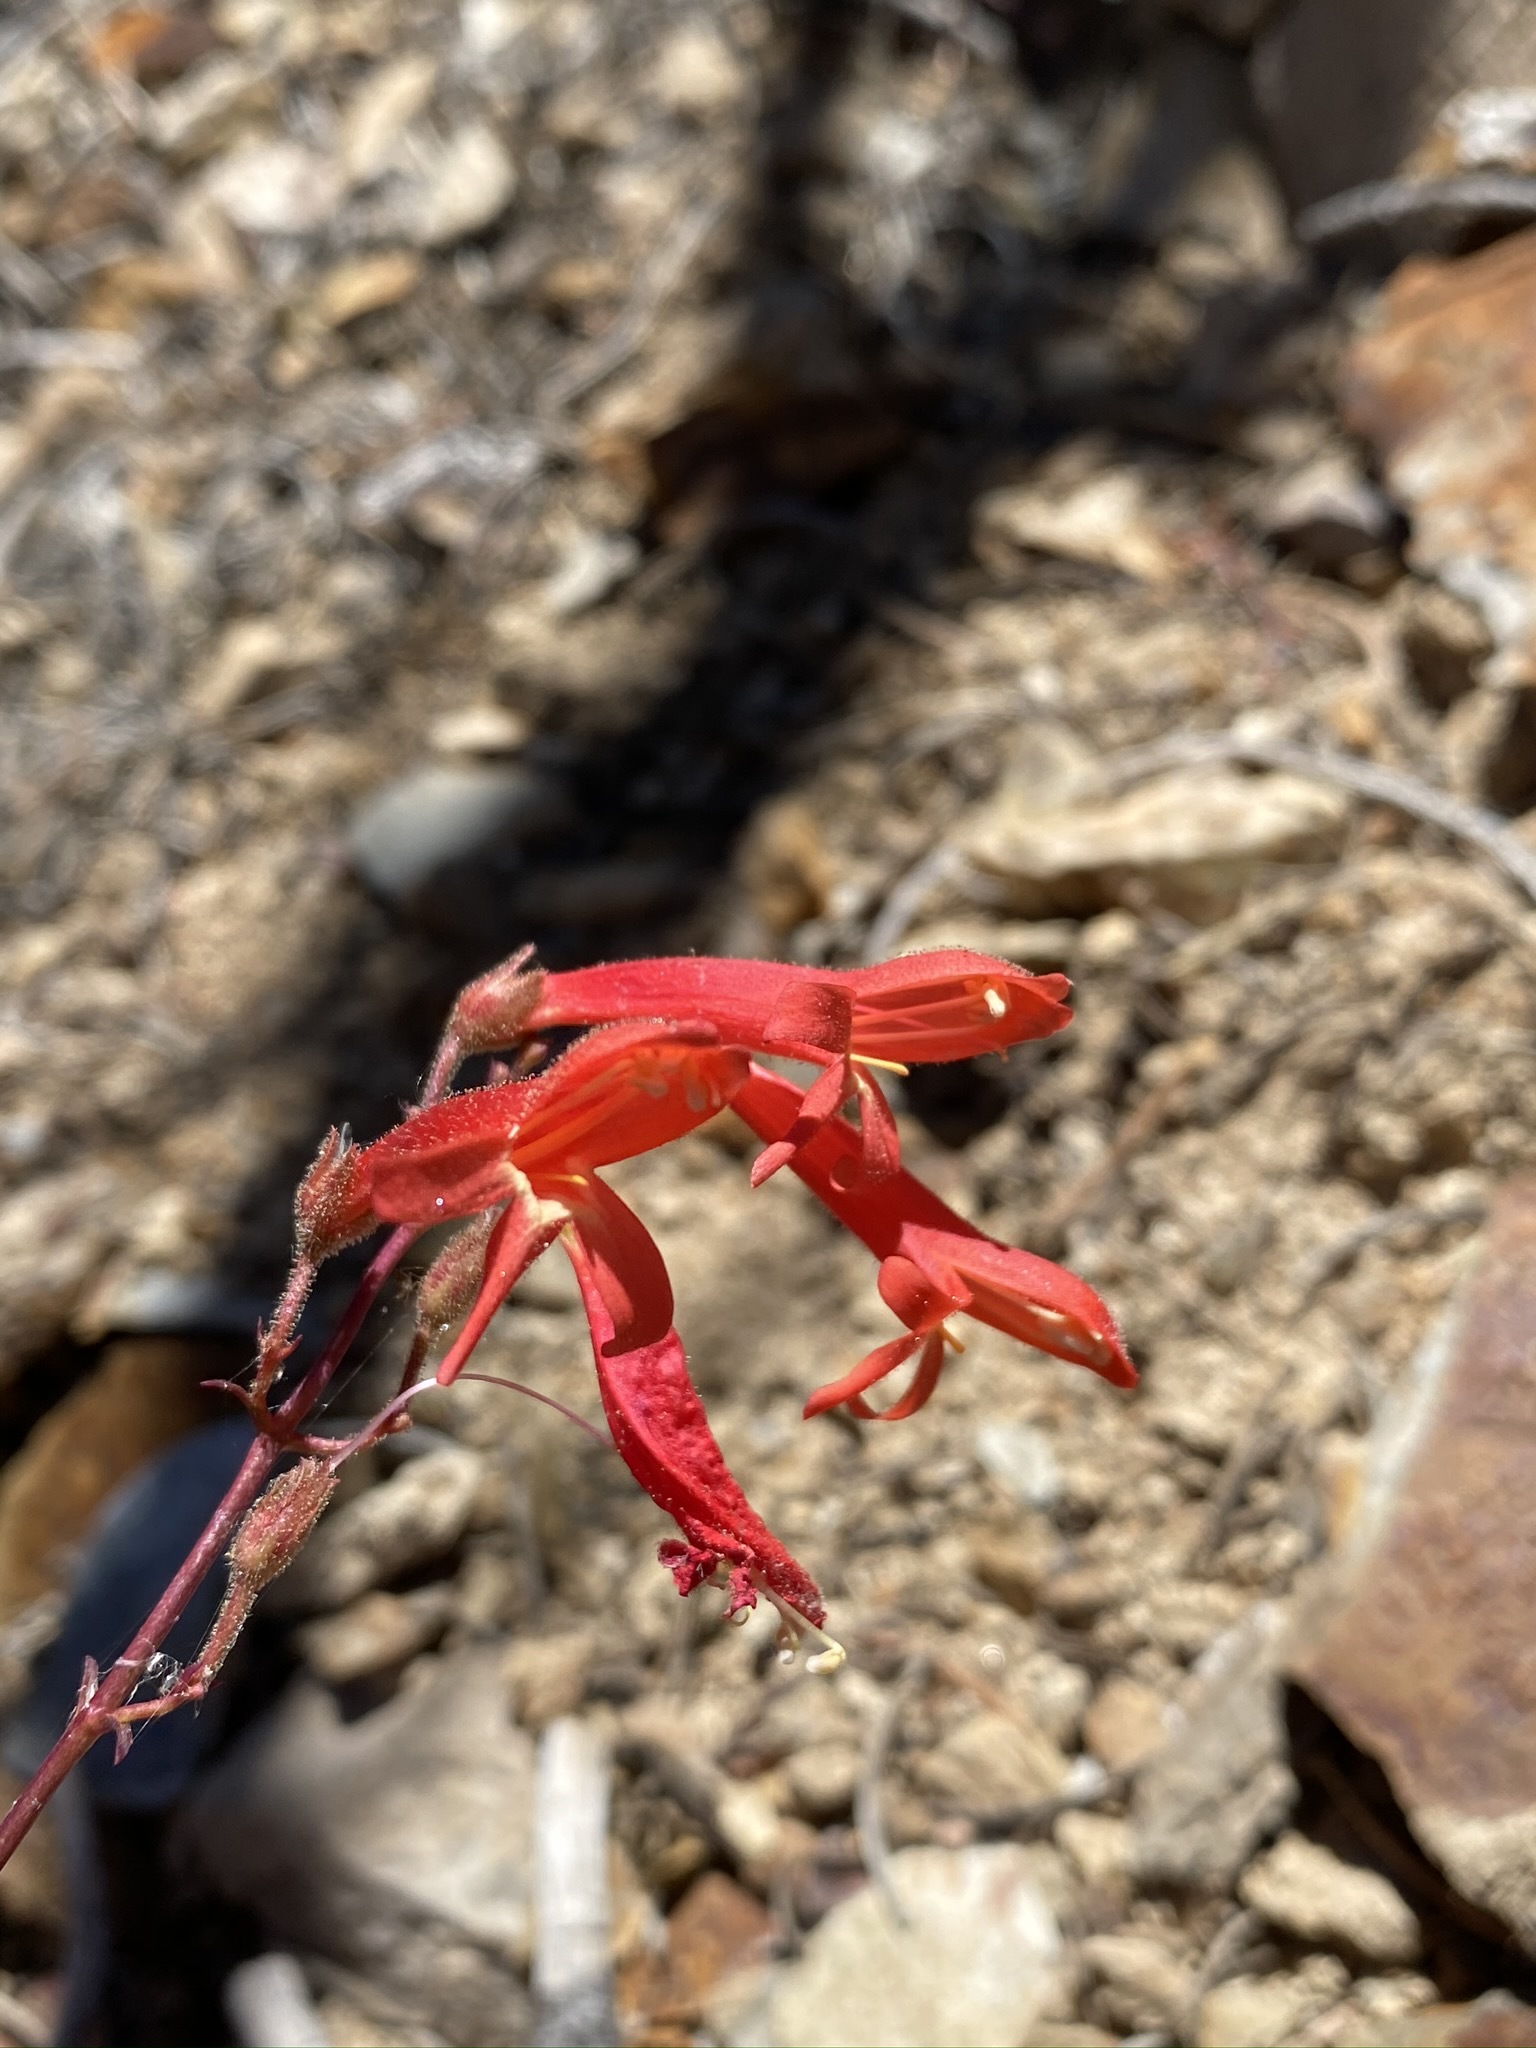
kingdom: Plantae
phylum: Tracheophyta
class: Magnoliopsida
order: Lamiales
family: Plantaginaceae
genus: Penstemon
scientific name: Penstemon rostriflorus
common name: Bridges's penstemon
